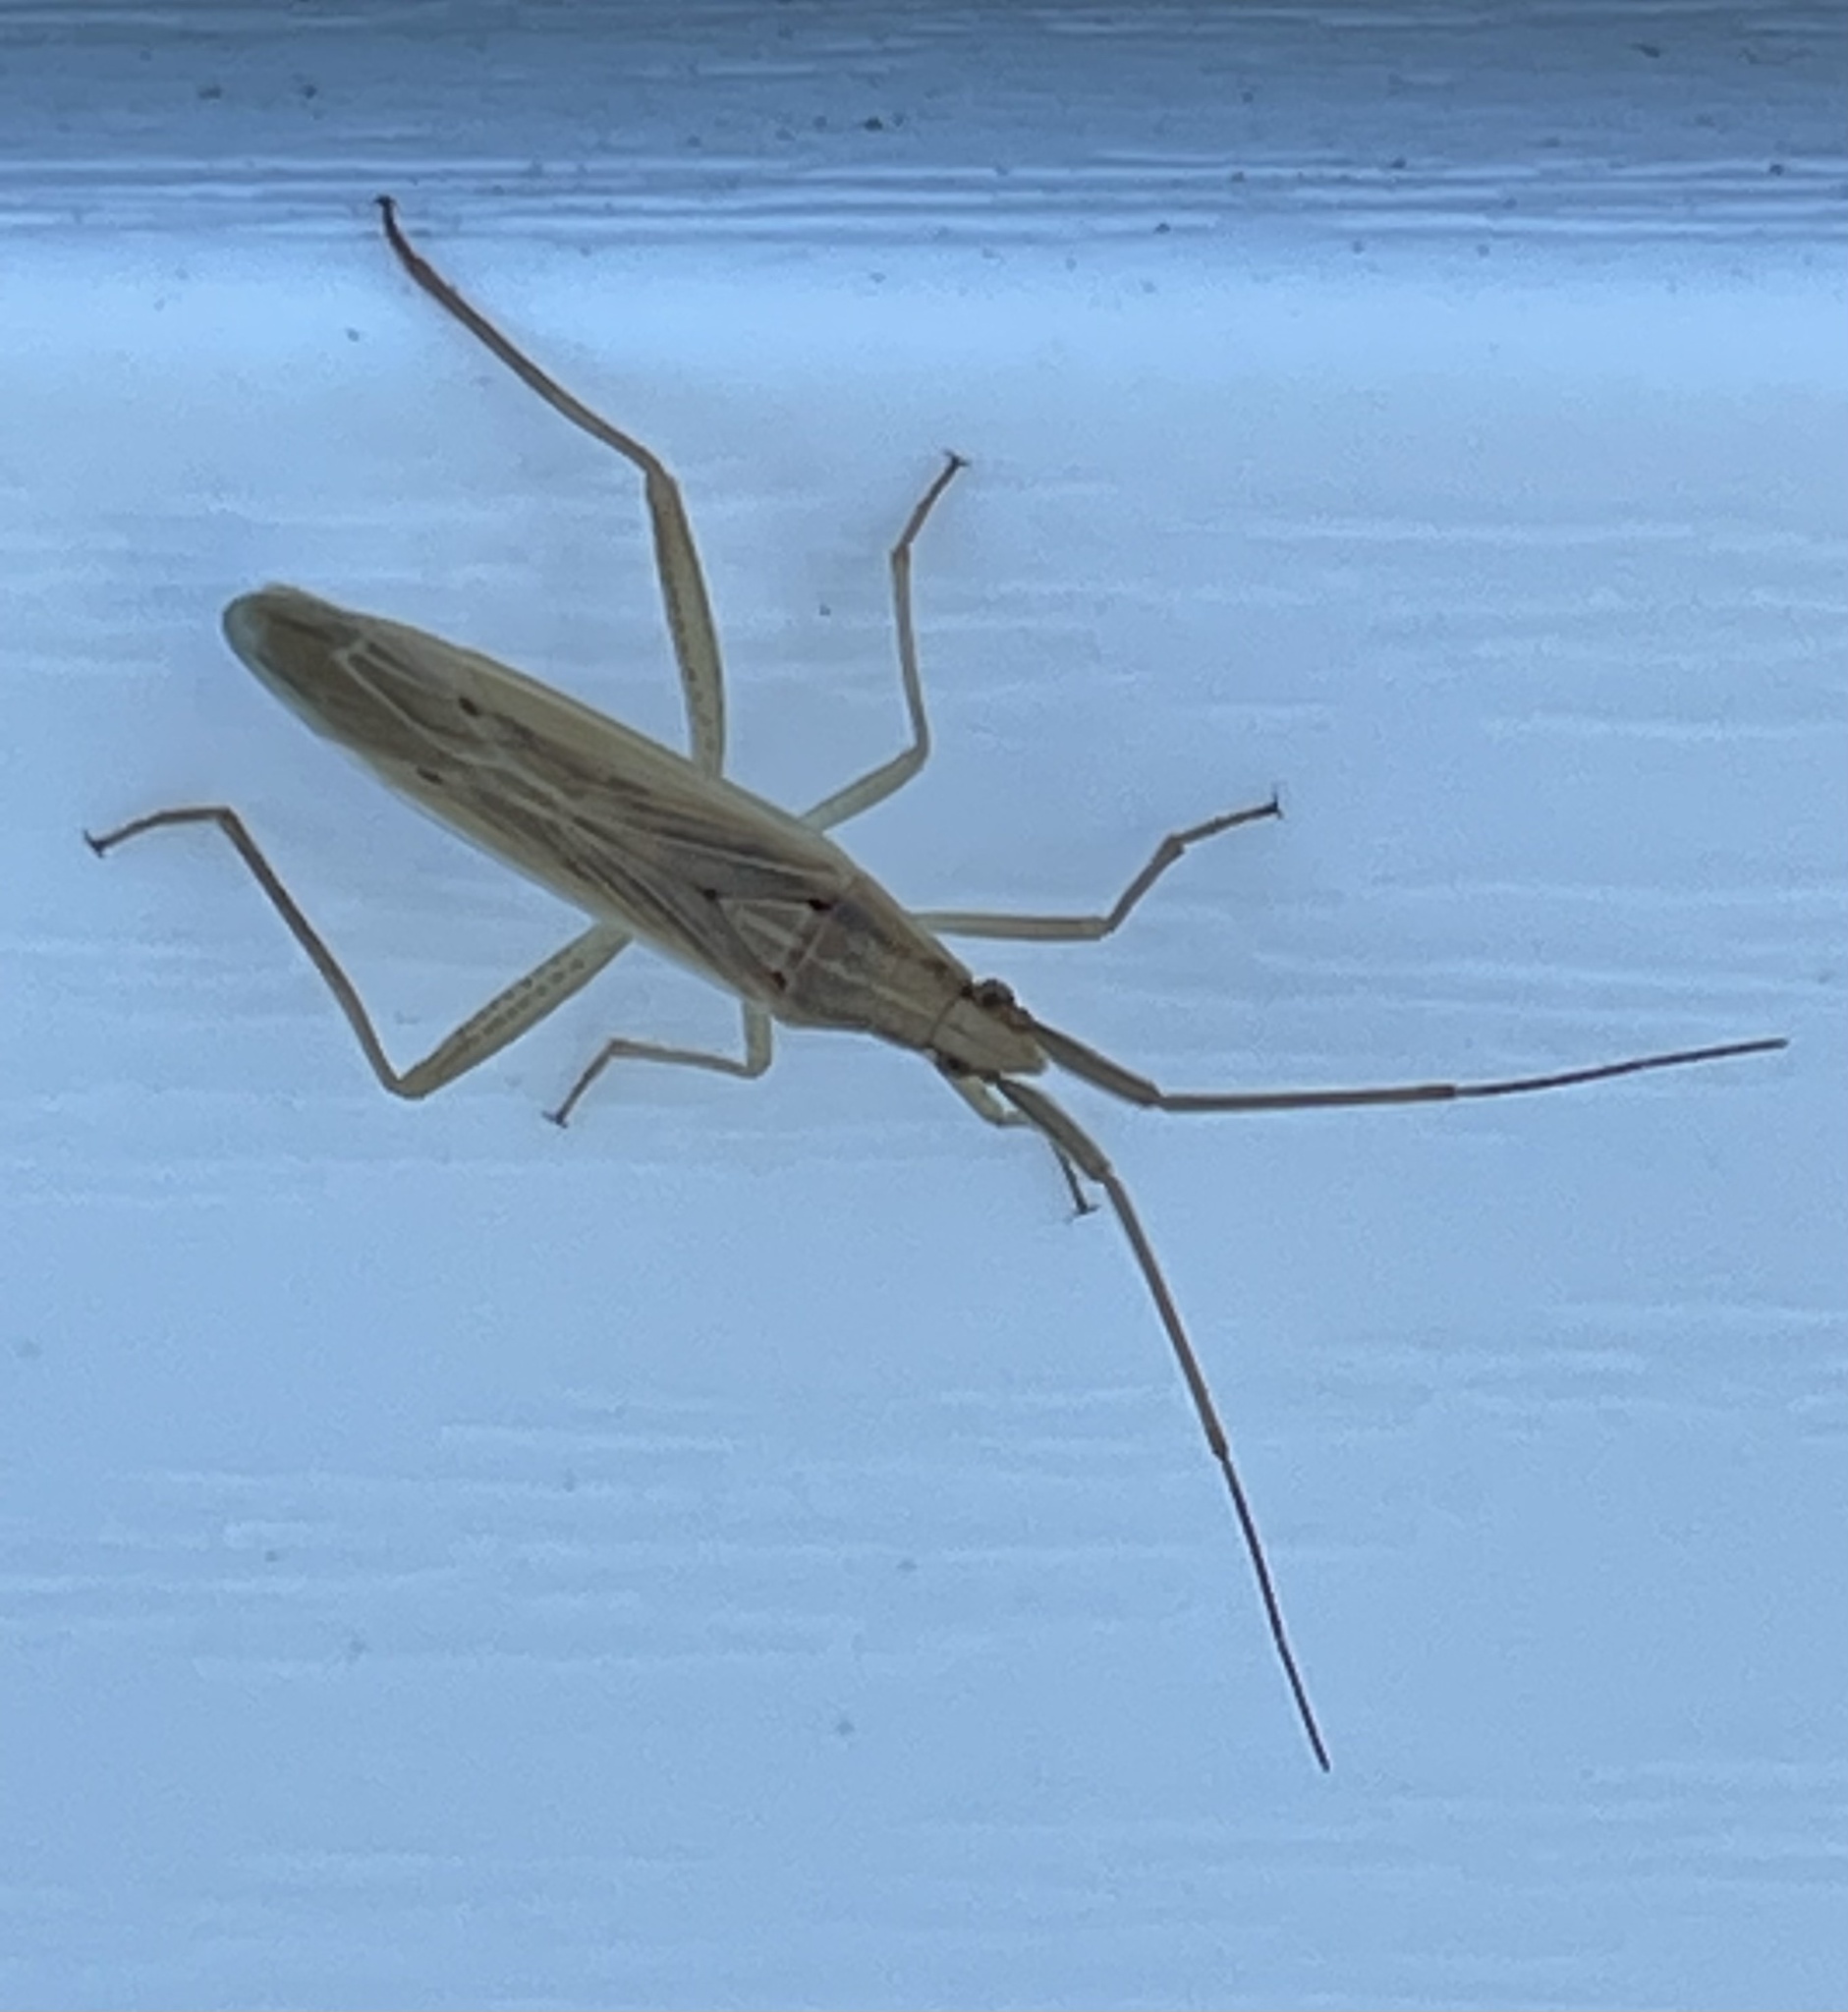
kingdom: Animalia
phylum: Arthropoda
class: Insecta
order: Hemiptera
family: Miridae
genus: Stenodema
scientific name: Stenodema laevigata
